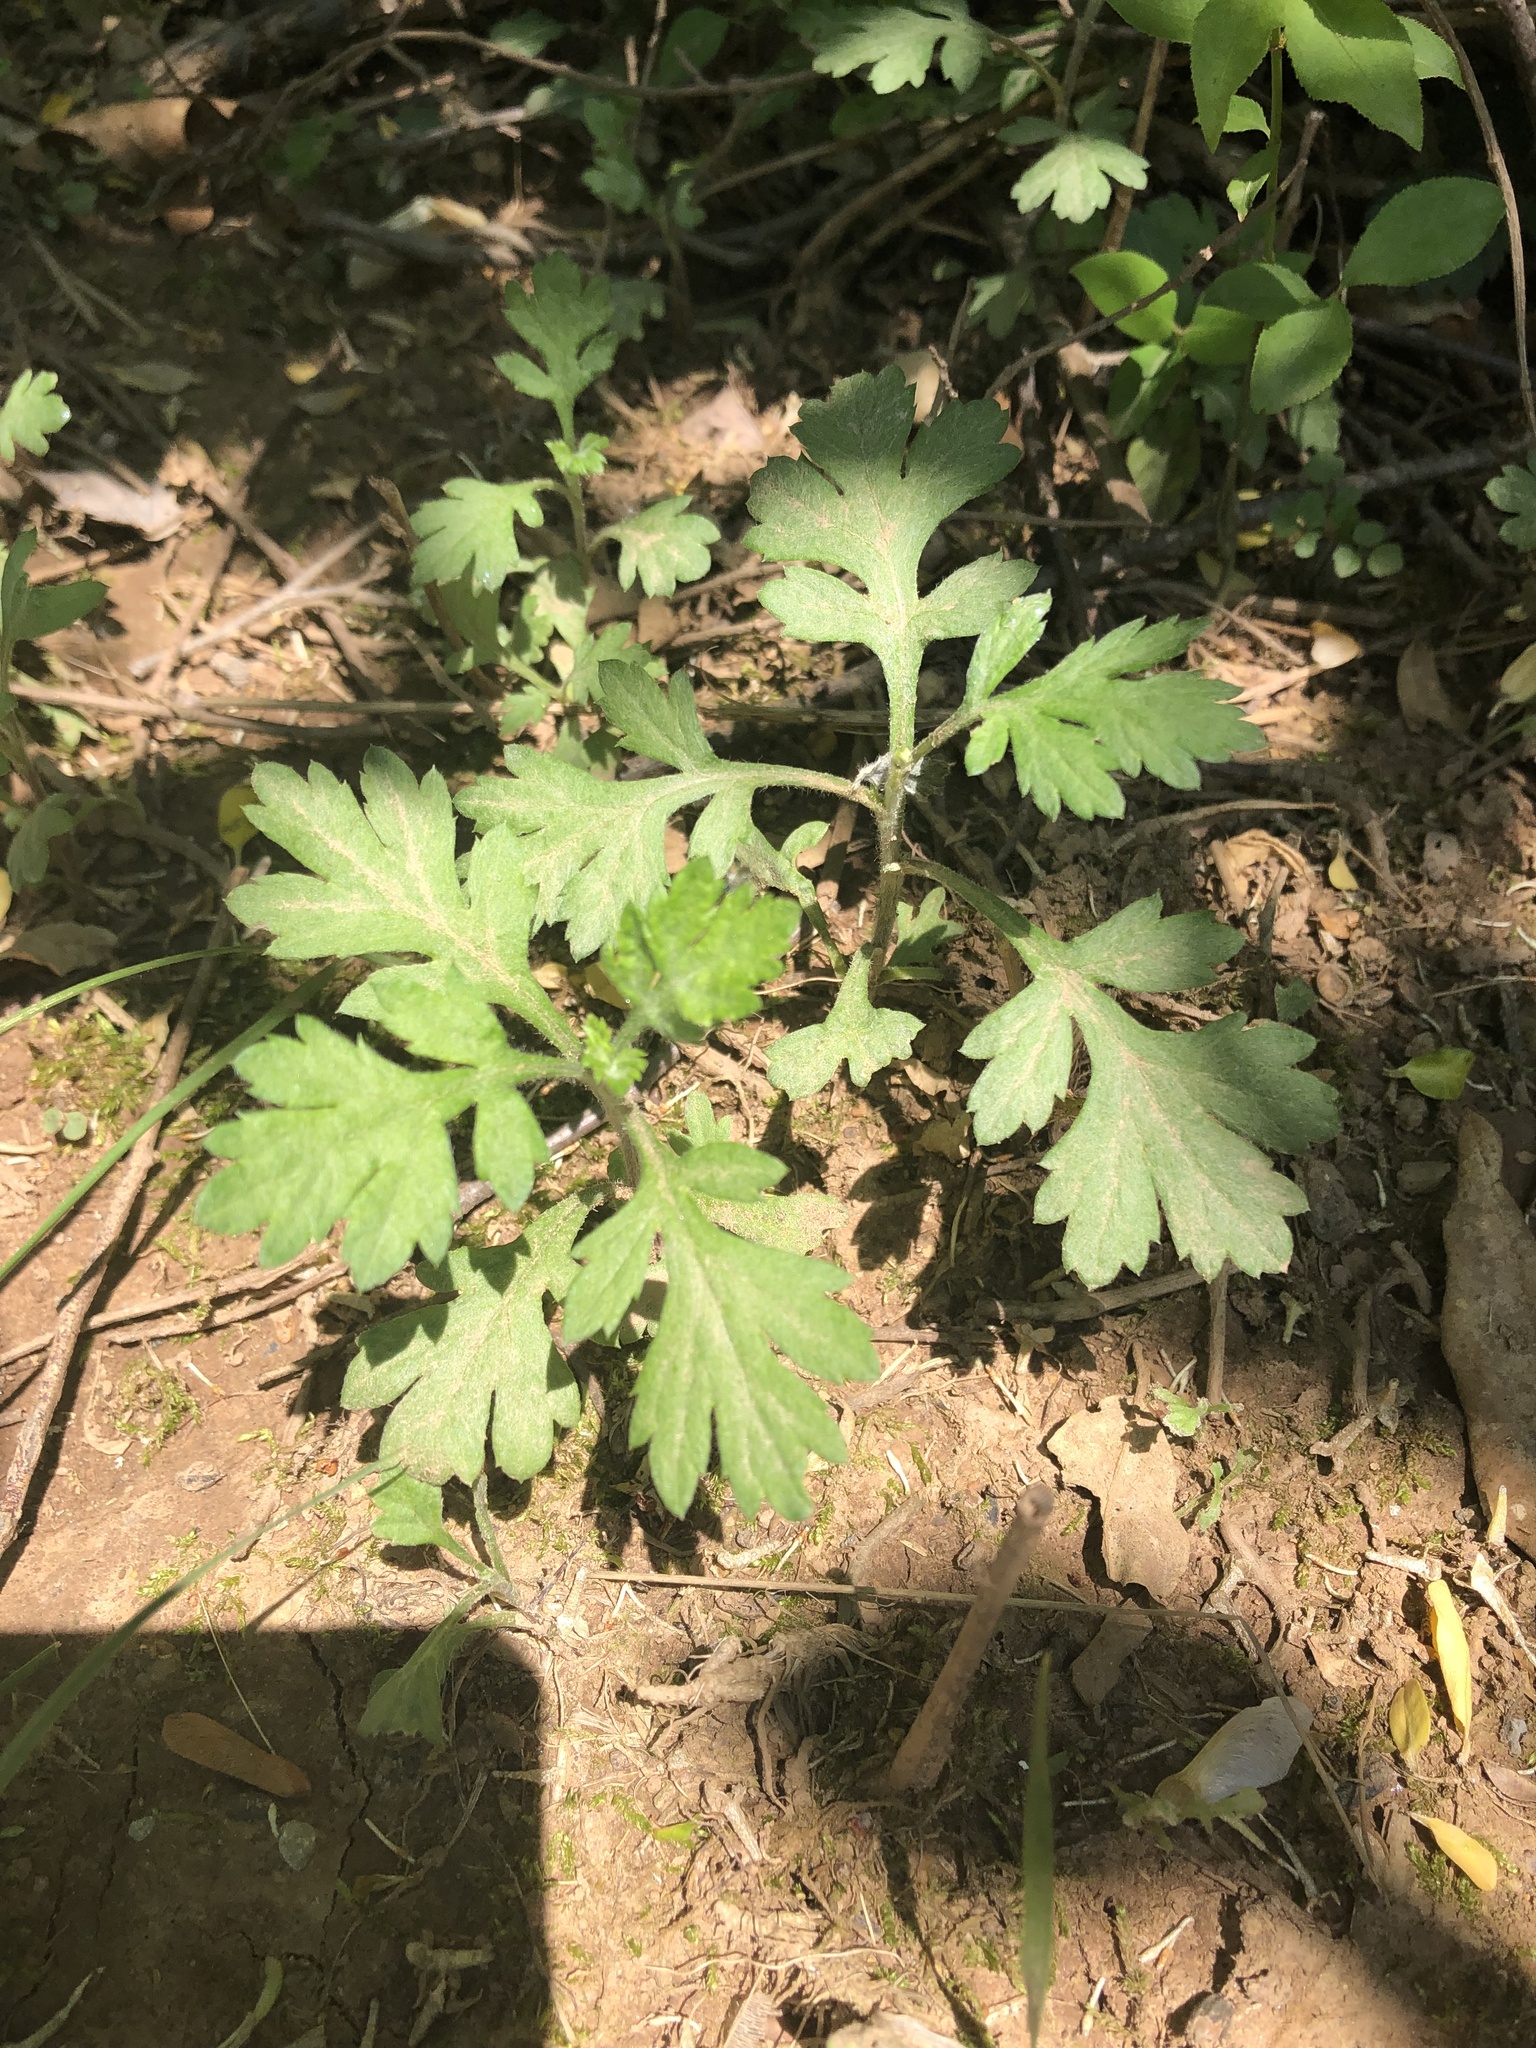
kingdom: Plantae
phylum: Tracheophyta
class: Magnoliopsida
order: Asterales
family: Asteraceae
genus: Artemisia
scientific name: Artemisia vulgaris
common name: Mugwort
